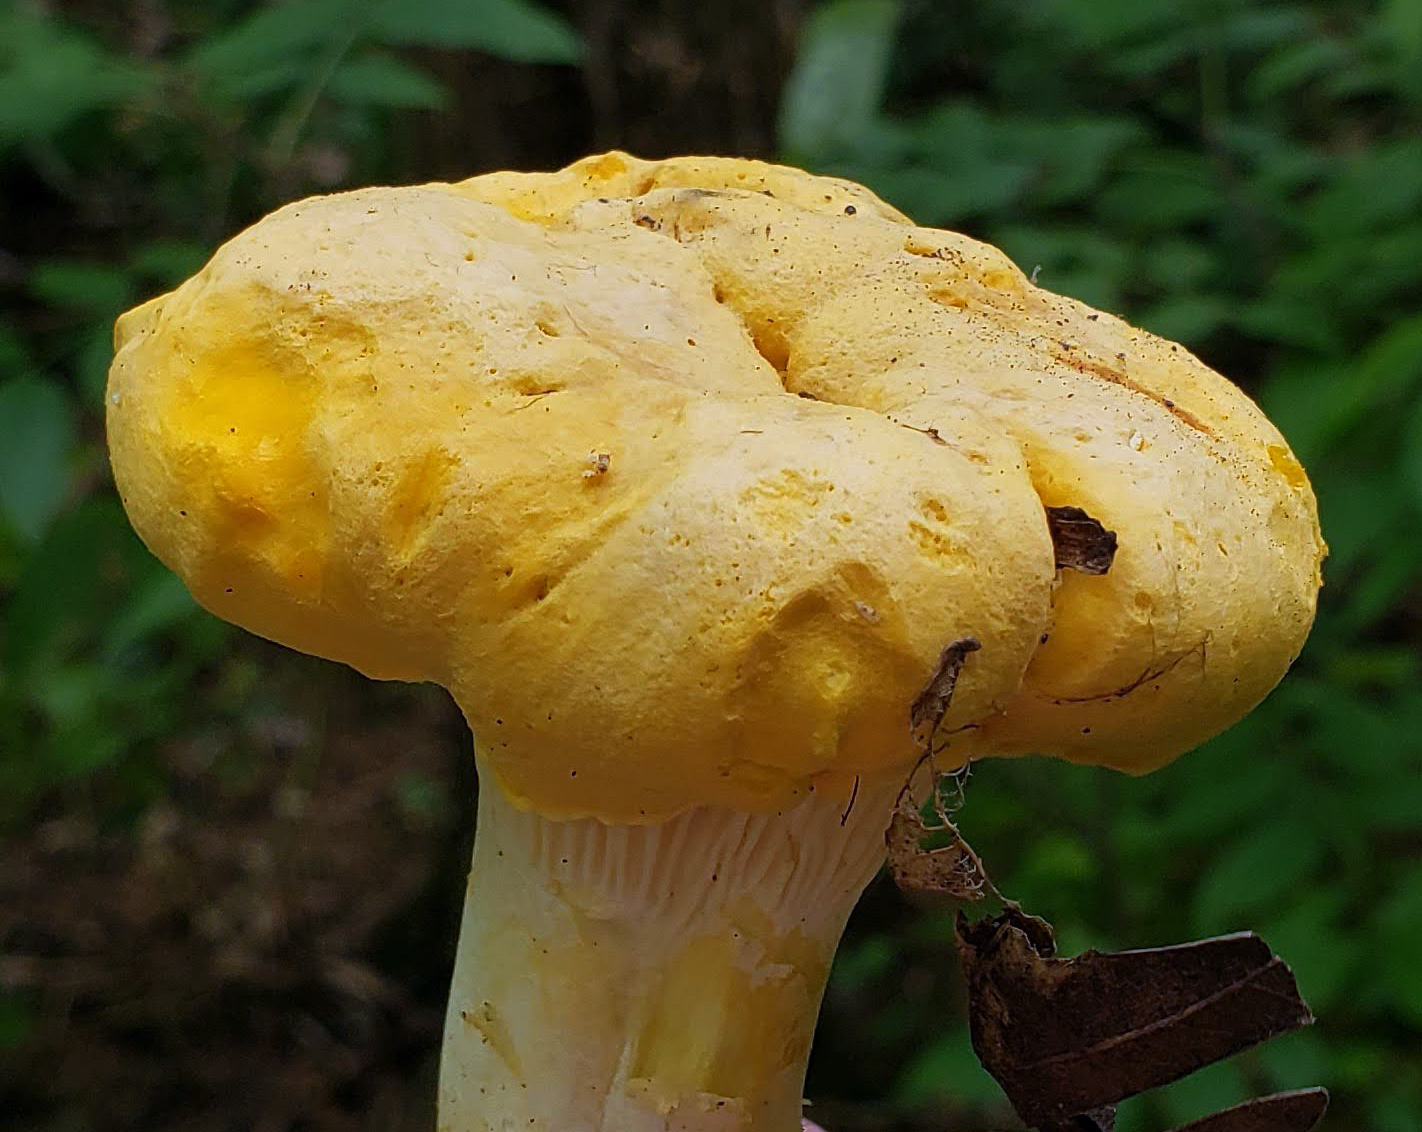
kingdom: Fungi
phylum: Basidiomycota
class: Agaricomycetes
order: Cantharellales
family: Hydnaceae
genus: Cantharellus
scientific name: Cantharellus phasmatis
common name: Ghost chanterelle
